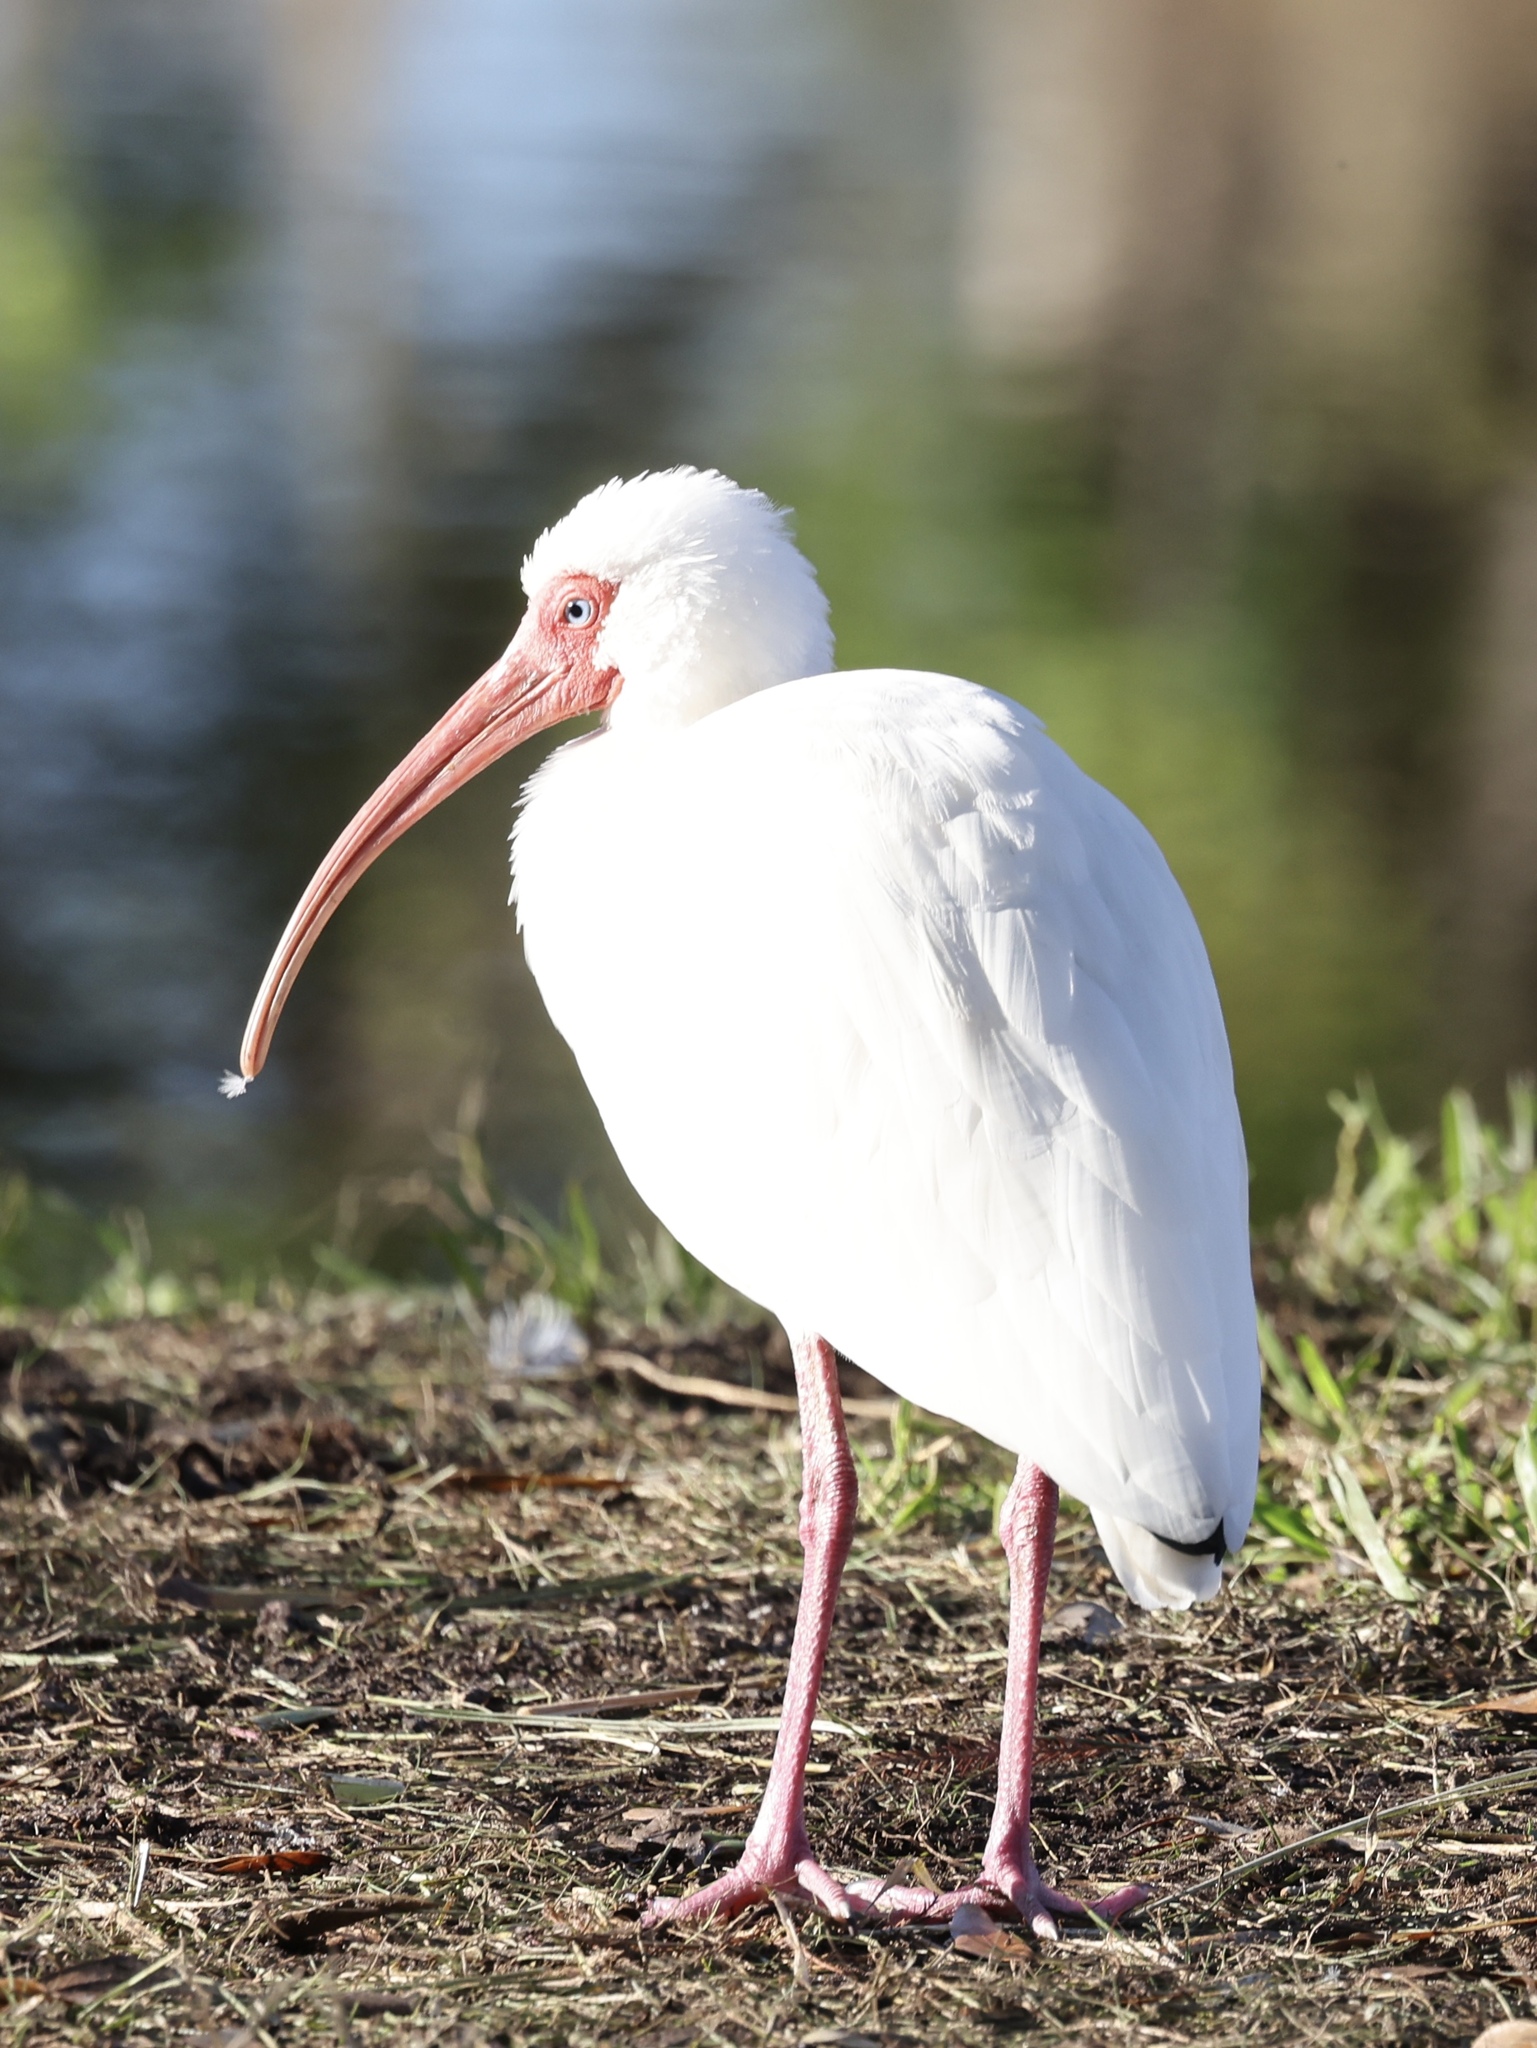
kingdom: Animalia
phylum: Chordata
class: Aves
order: Pelecaniformes
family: Threskiornithidae
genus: Eudocimus
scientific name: Eudocimus albus
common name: White ibis
